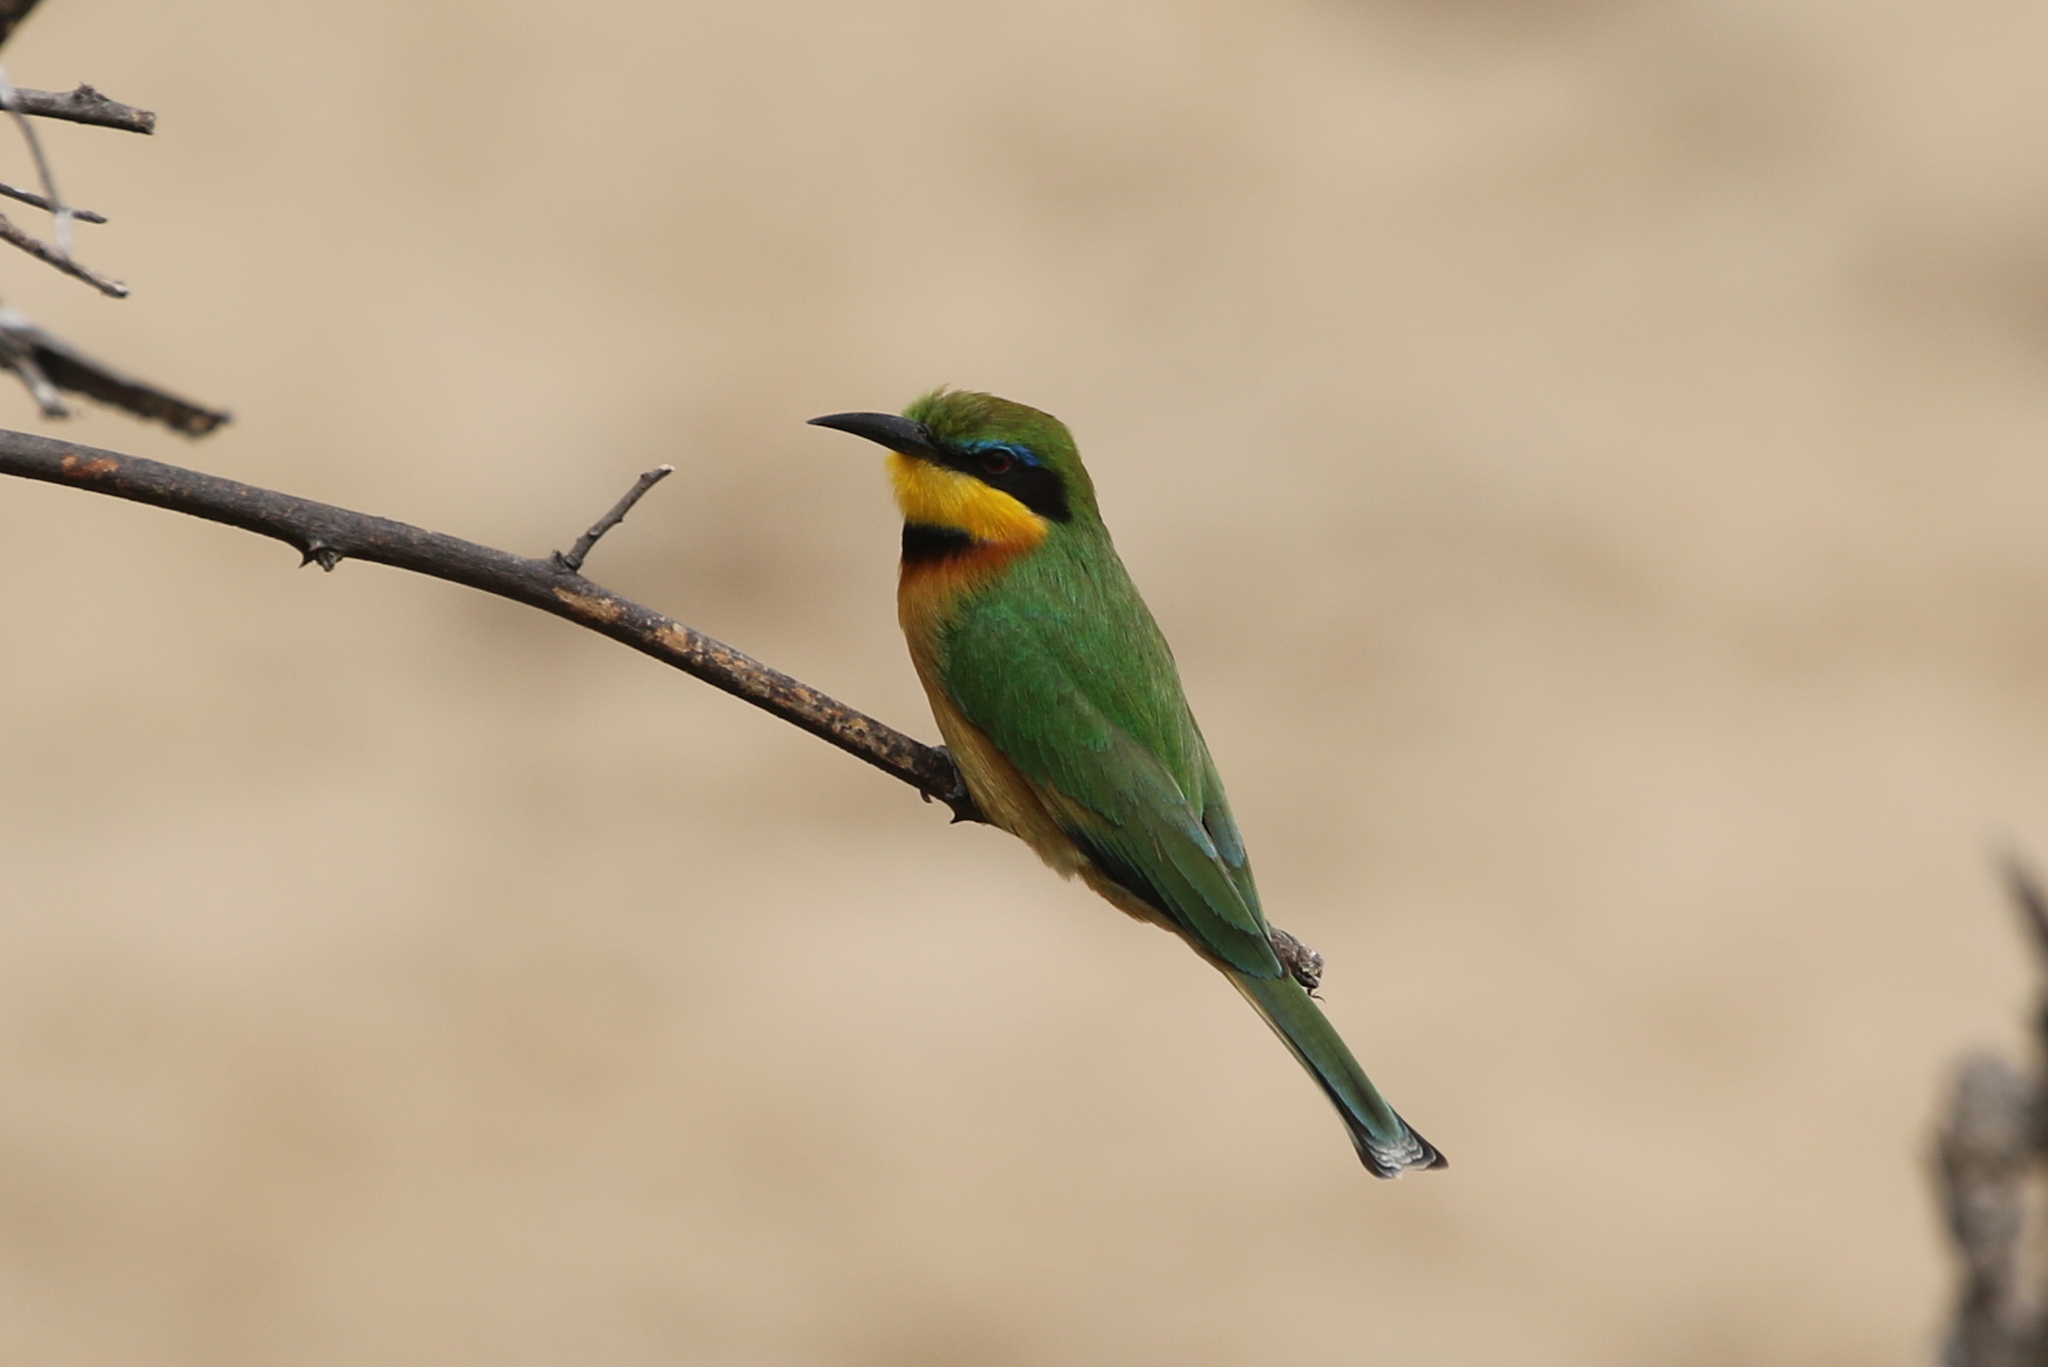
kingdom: Animalia
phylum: Chordata
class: Aves
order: Coraciiformes
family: Meropidae
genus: Merops
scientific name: Merops pusillus
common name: Little bee-eater
